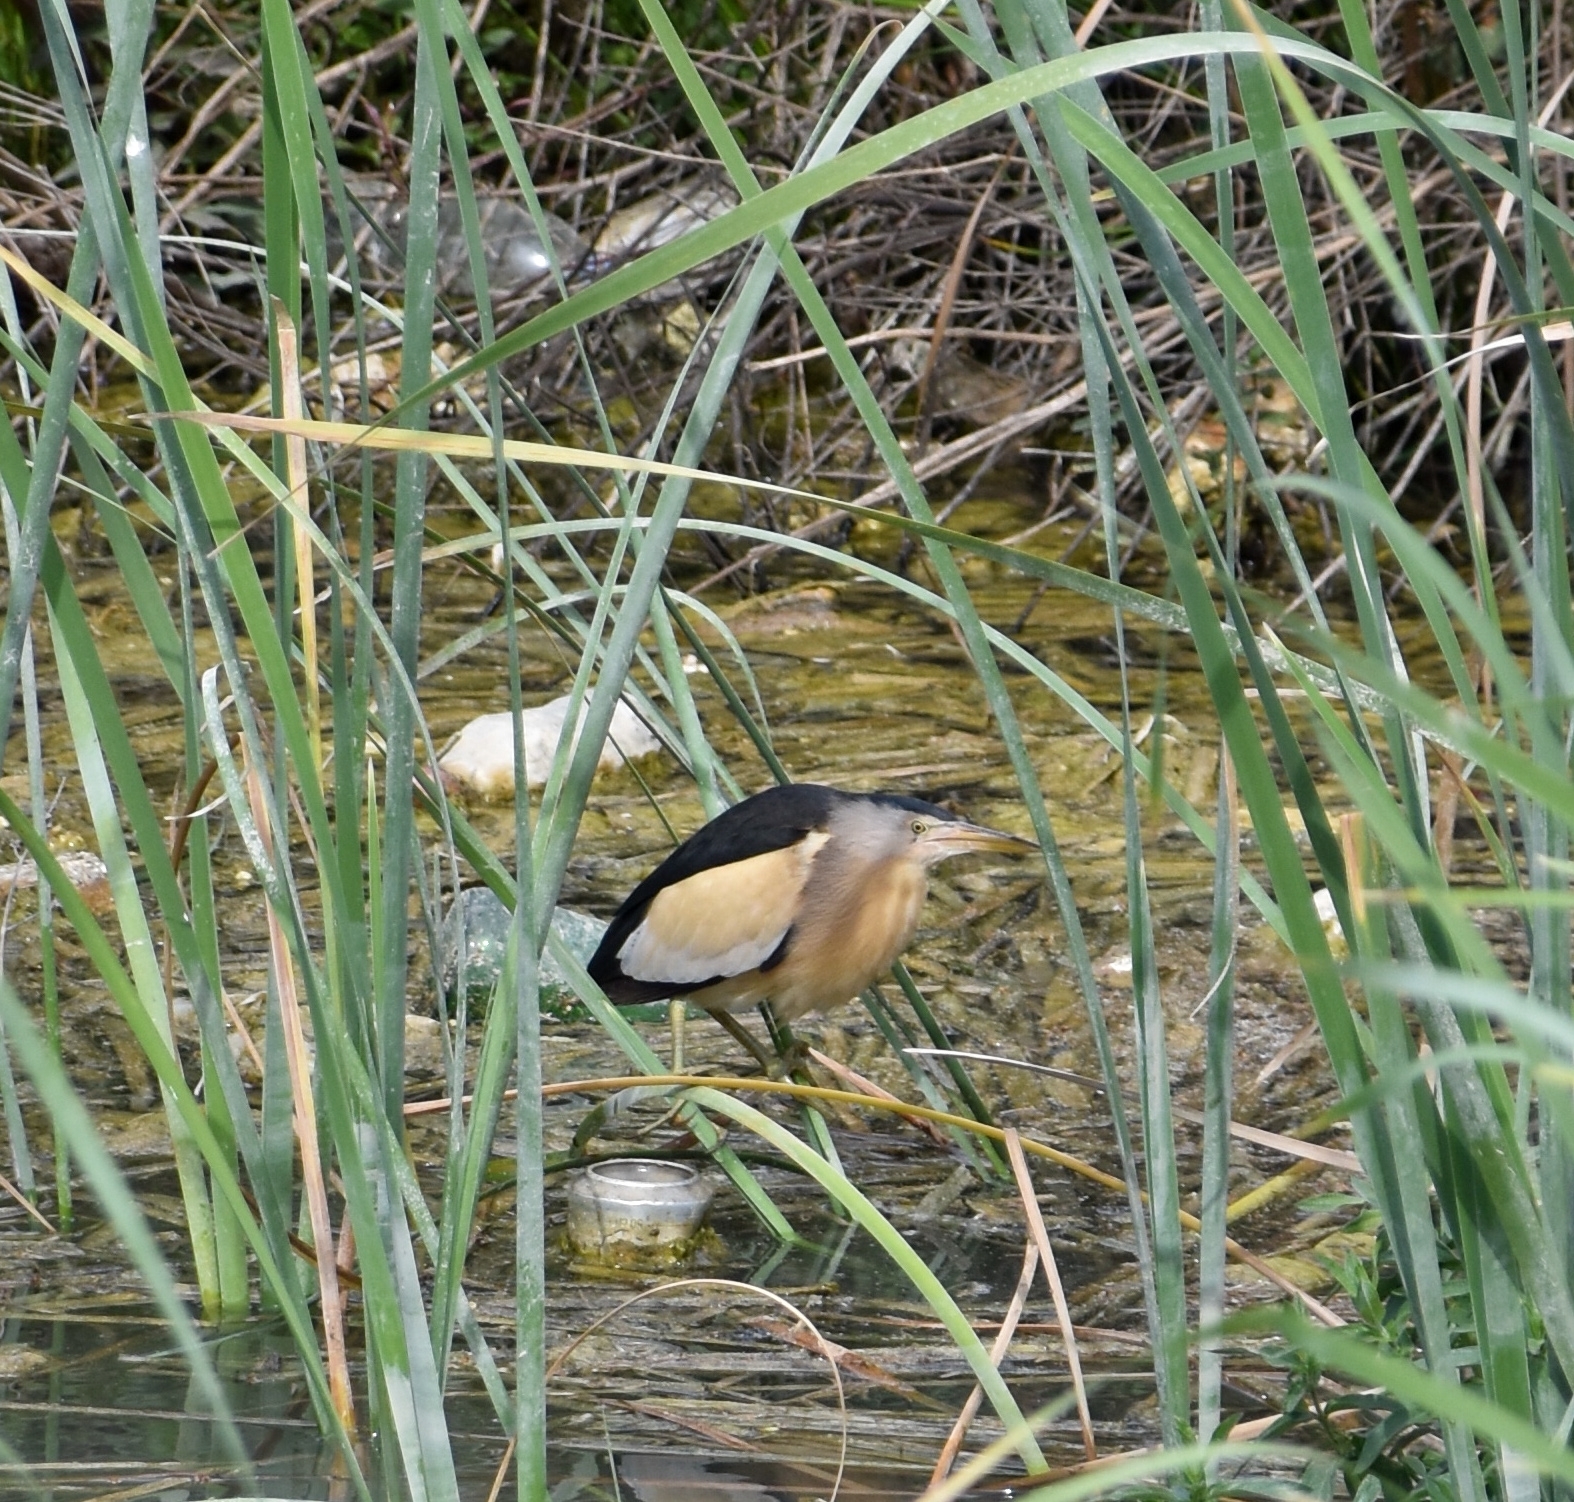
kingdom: Animalia
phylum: Chordata
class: Aves
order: Pelecaniformes
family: Ardeidae
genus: Ixobrychus
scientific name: Ixobrychus minutus
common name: Little bittern
